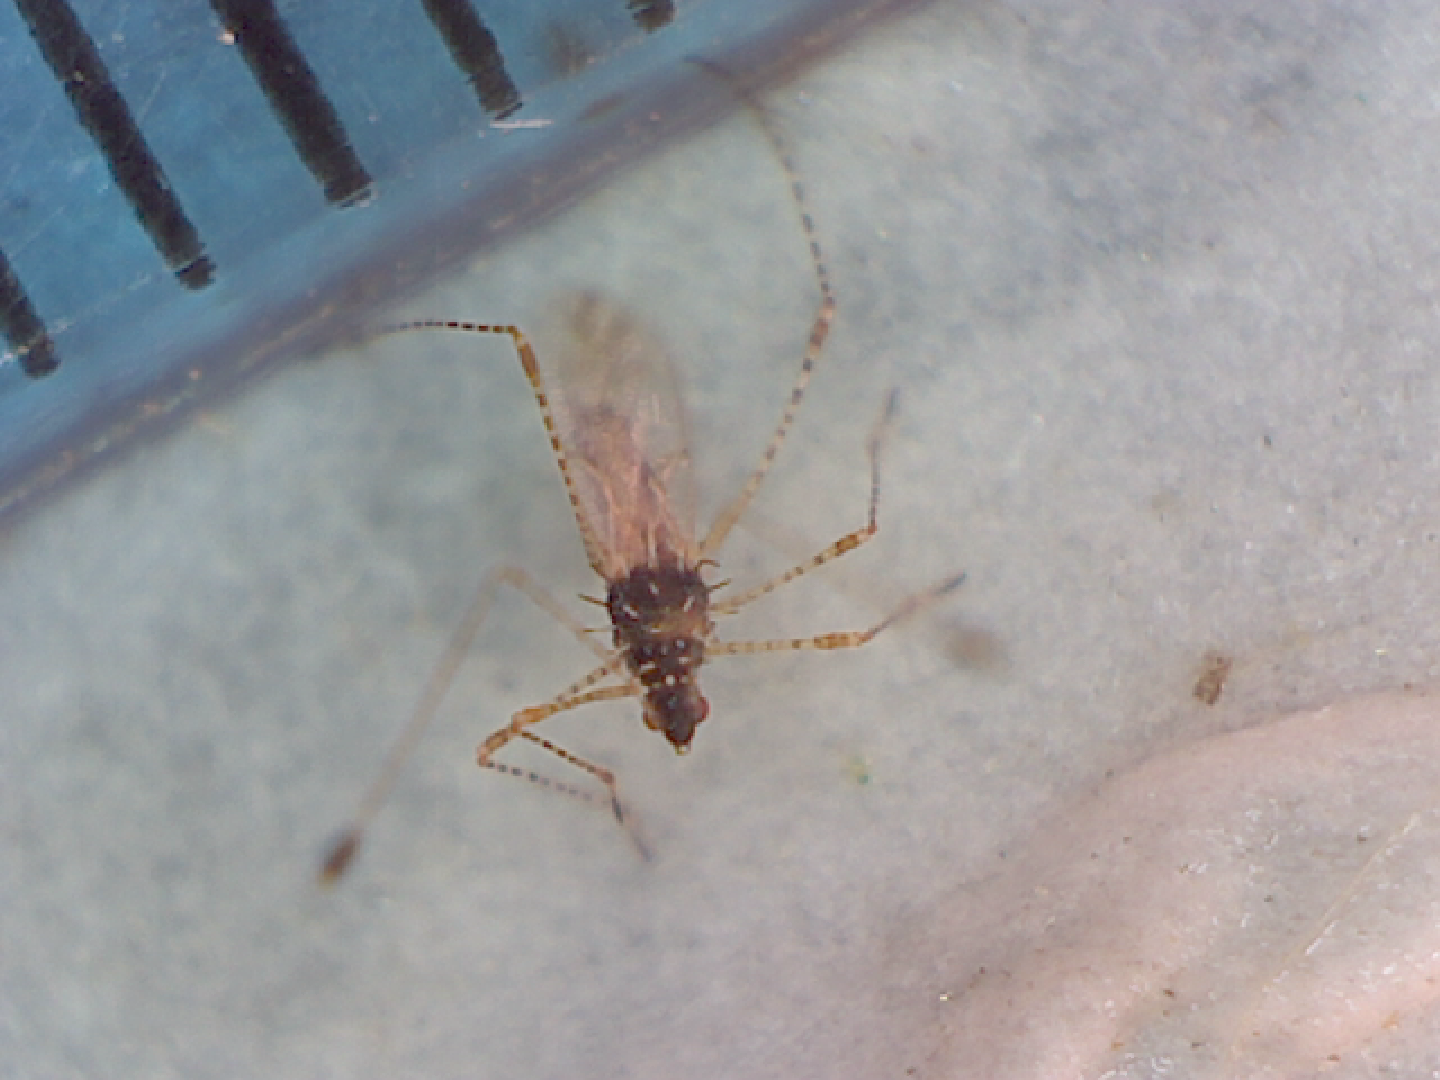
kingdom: Animalia
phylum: Arthropoda
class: Insecta
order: Hemiptera
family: Berytidae
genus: Pronotacantha
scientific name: Pronotacantha annulata
